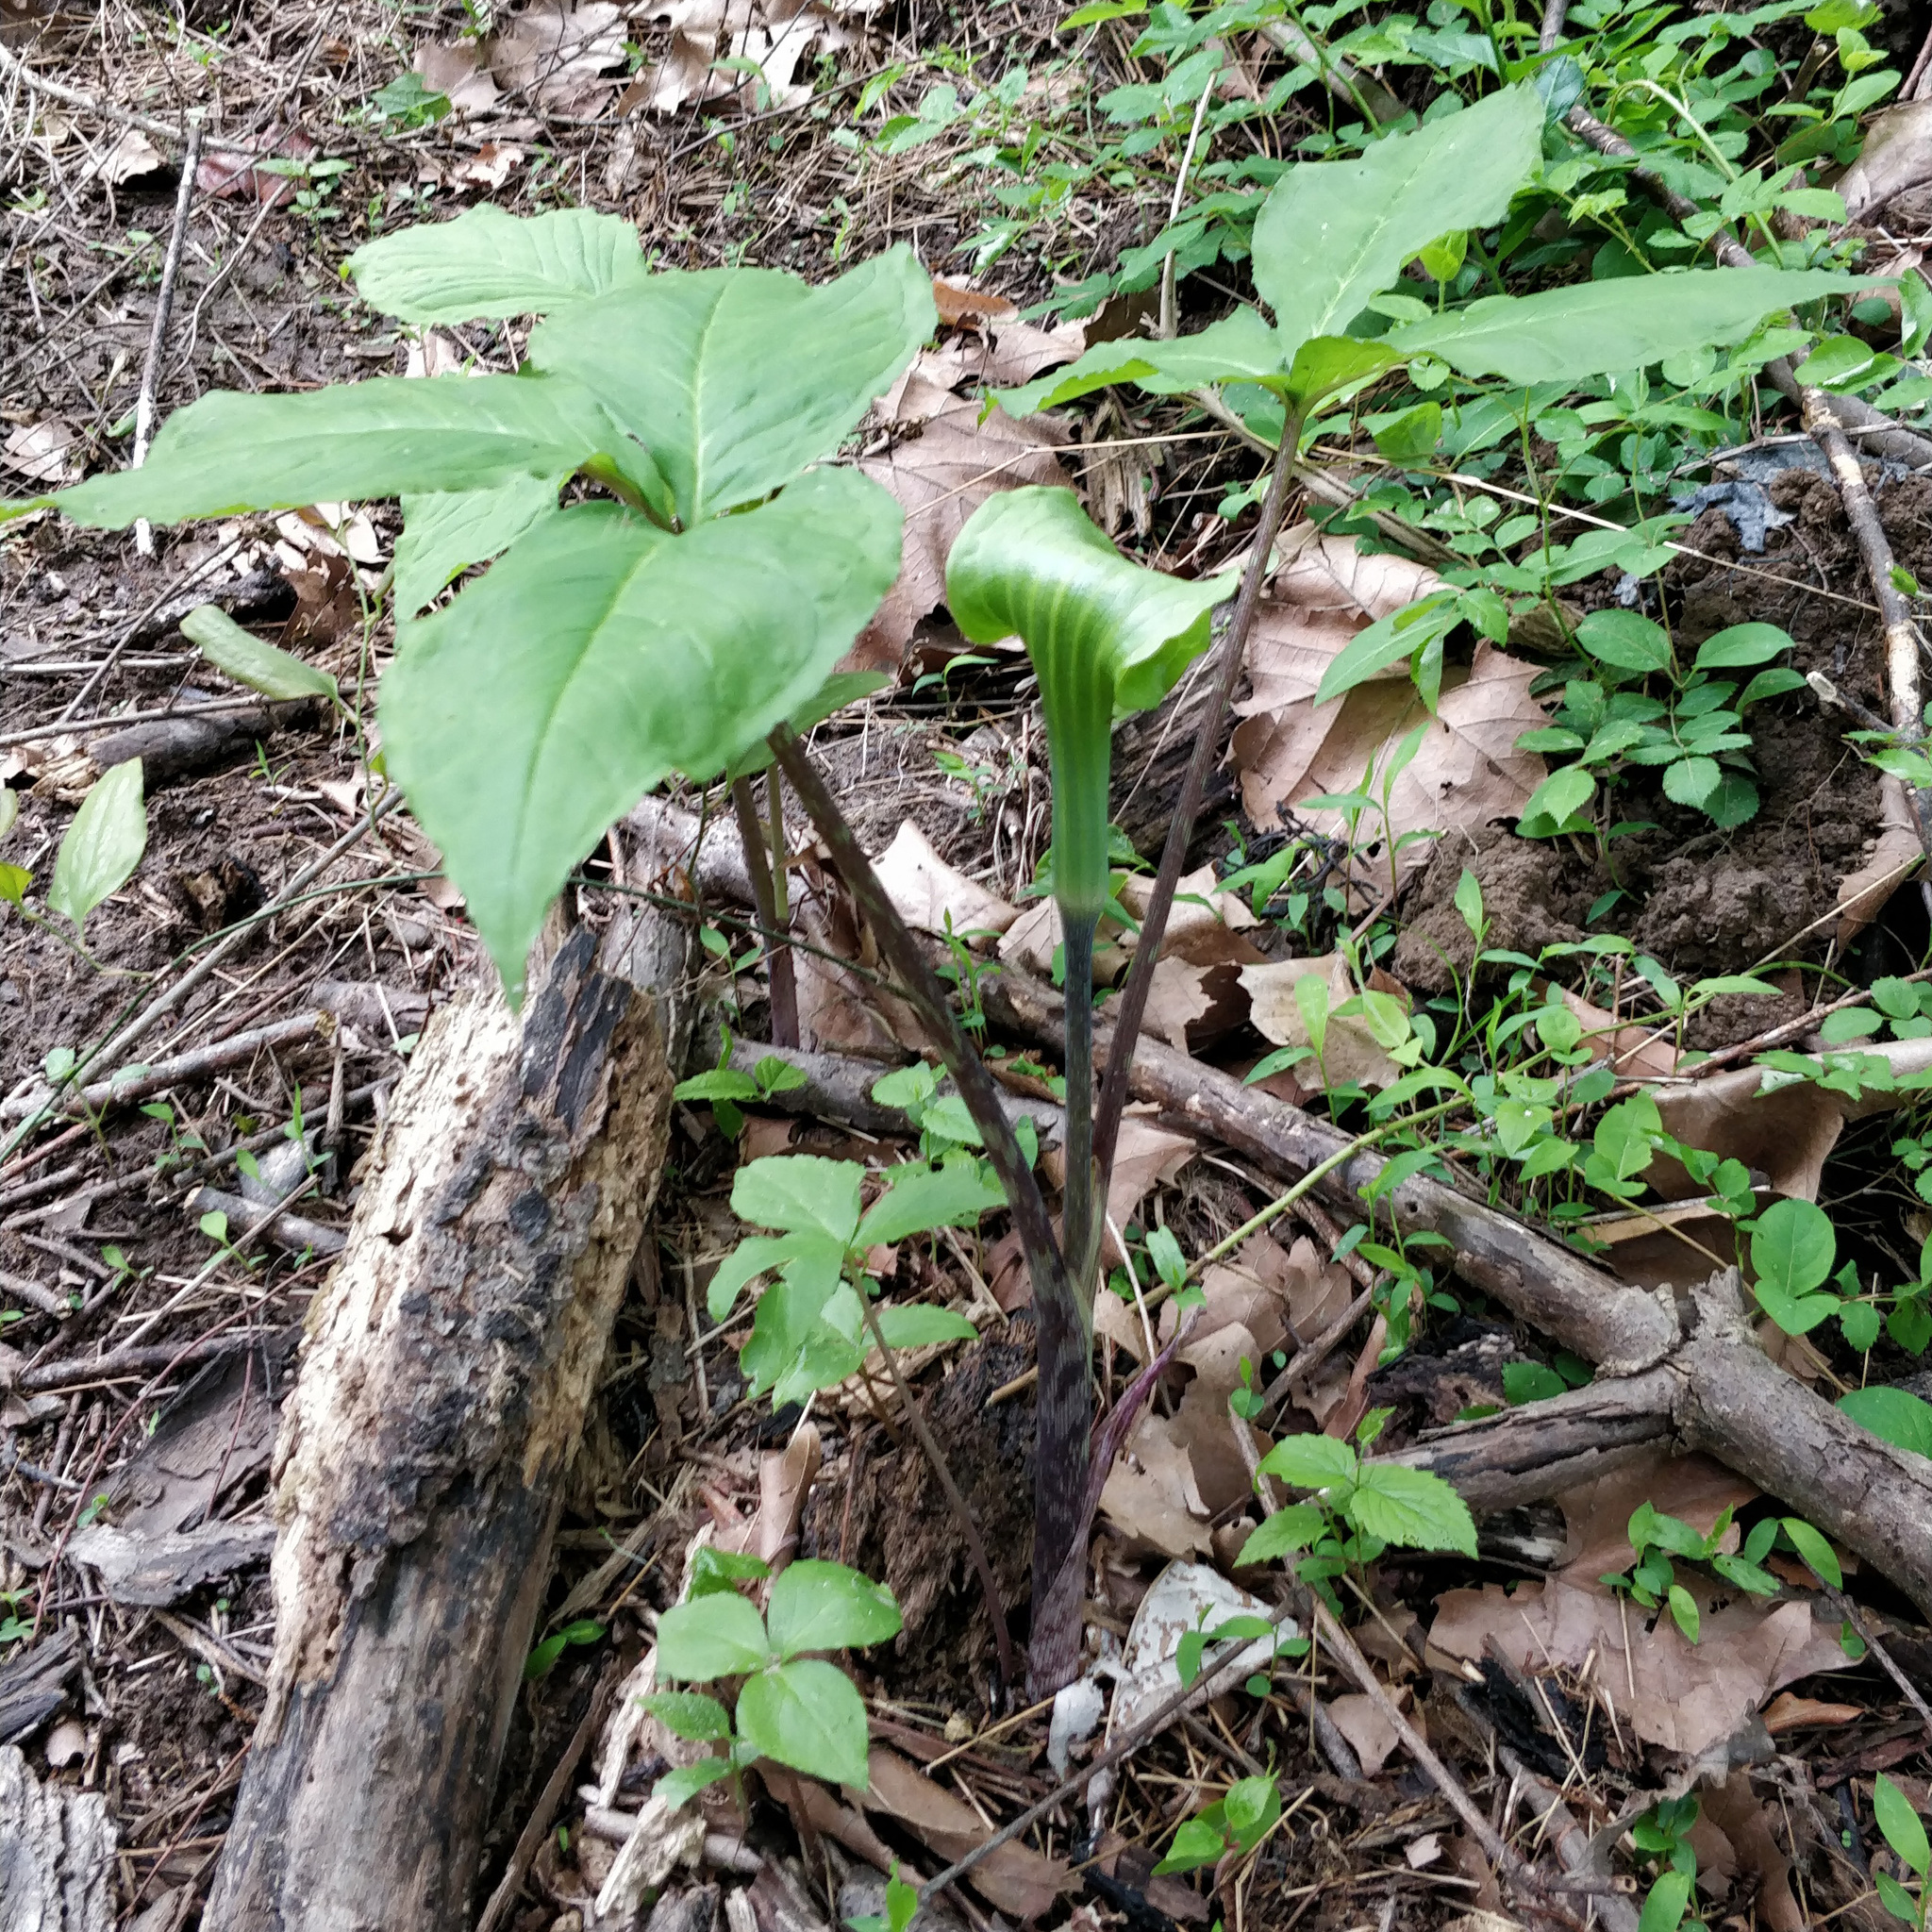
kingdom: Plantae
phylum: Tracheophyta
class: Liliopsida
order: Alismatales
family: Araceae
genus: Arisaema
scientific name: Arisaema triphyllum
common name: Jack-in-the-pulpit
